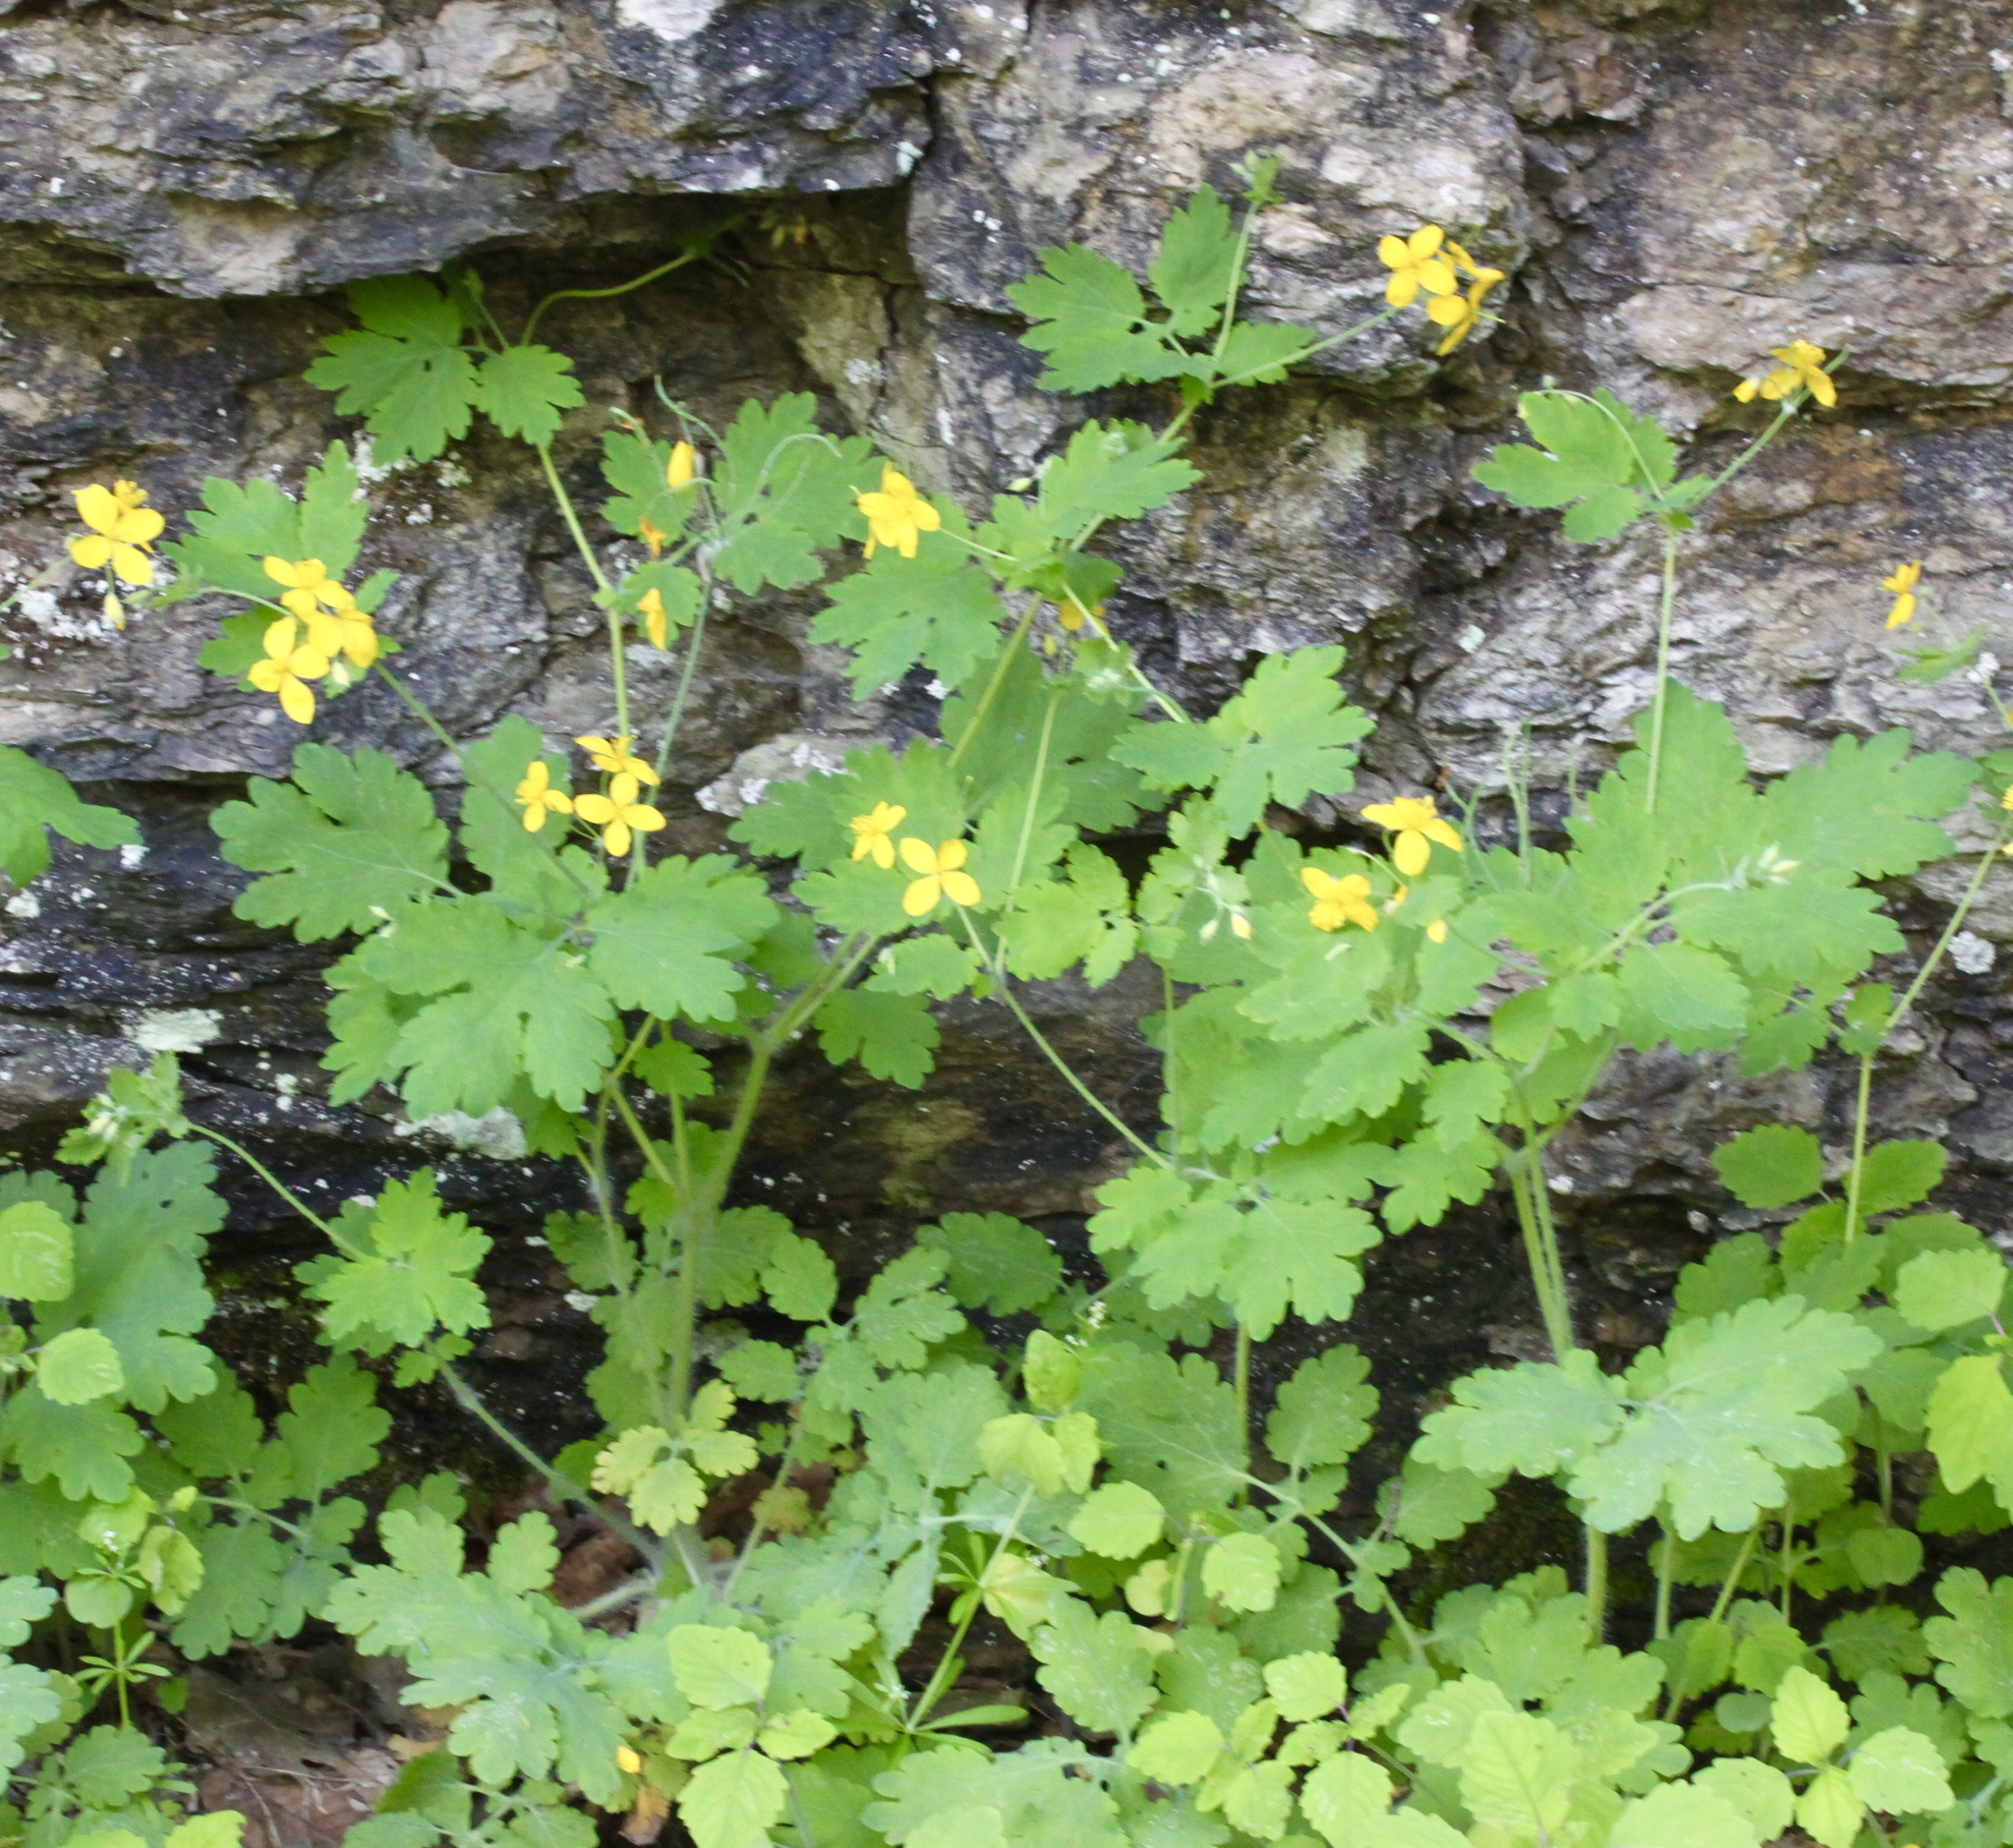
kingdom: Plantae
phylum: Tracheophyta
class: Magnoliopsida
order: Ranunculales
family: Papaveraceae
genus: Chelidonium
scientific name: Chelidonium majus
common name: Greater celandine
